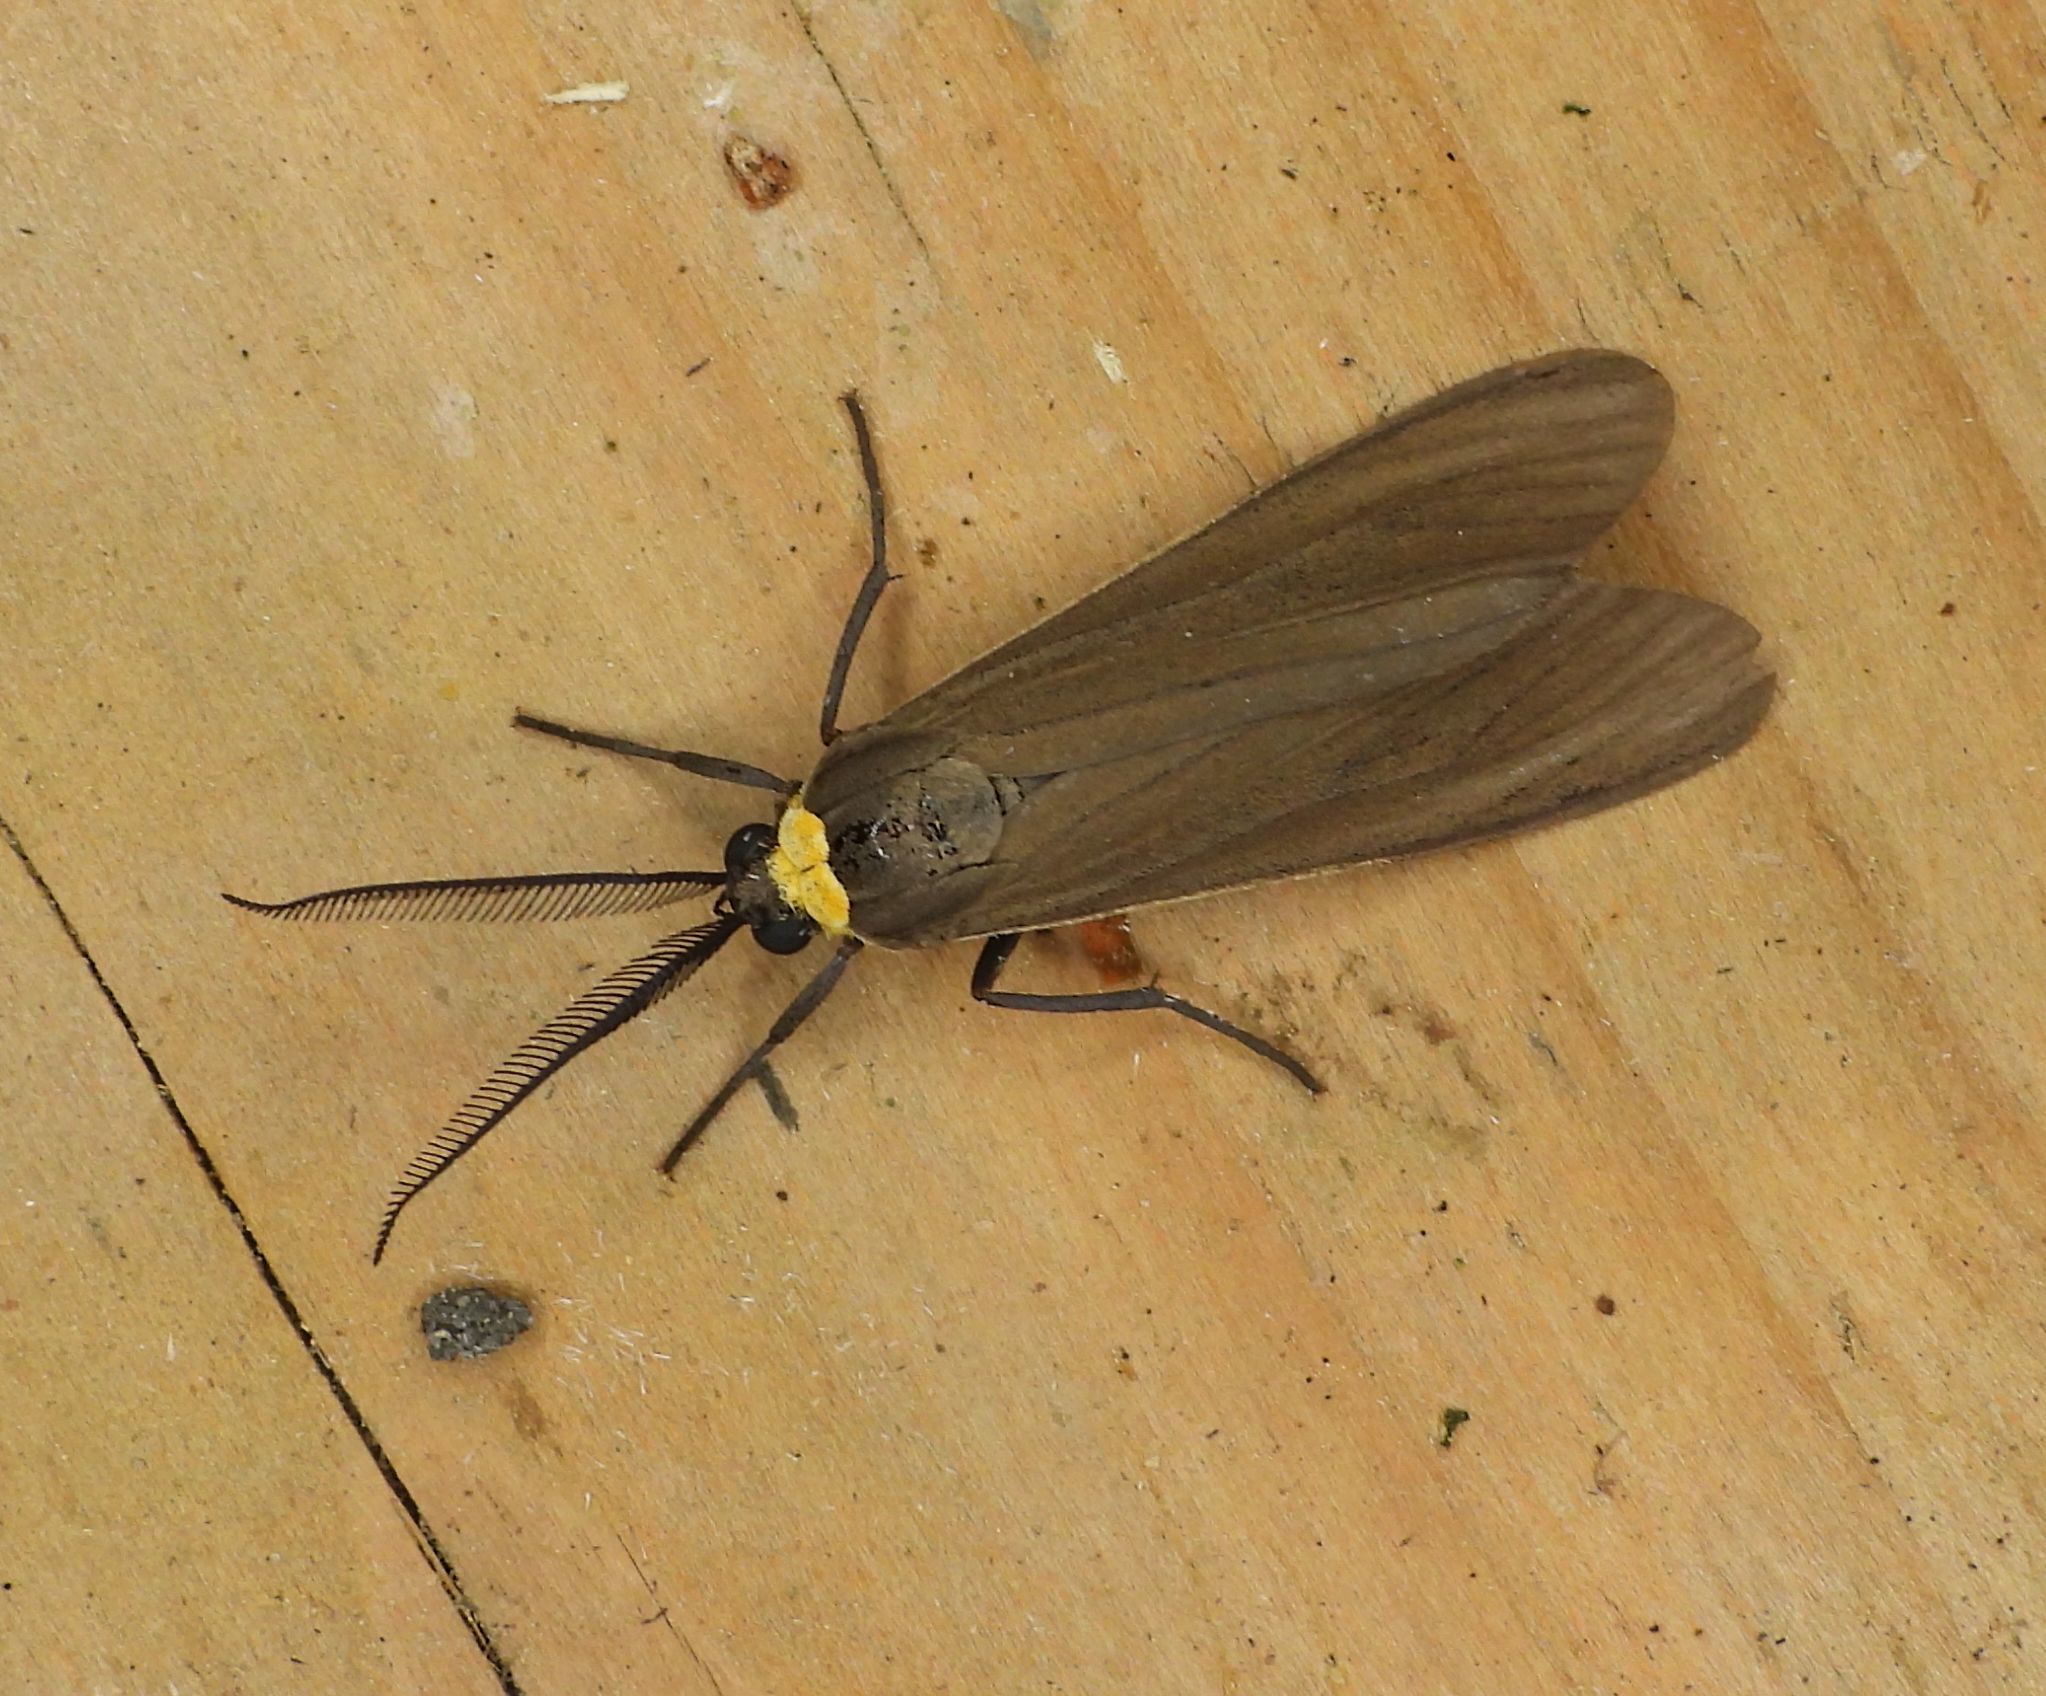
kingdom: Animalia
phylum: Arthropoda
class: Insecta
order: Lepidoptera
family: Erebidae
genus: Cisseps
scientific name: Cisseps fulvicollis
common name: Yellow-collared scape moth
